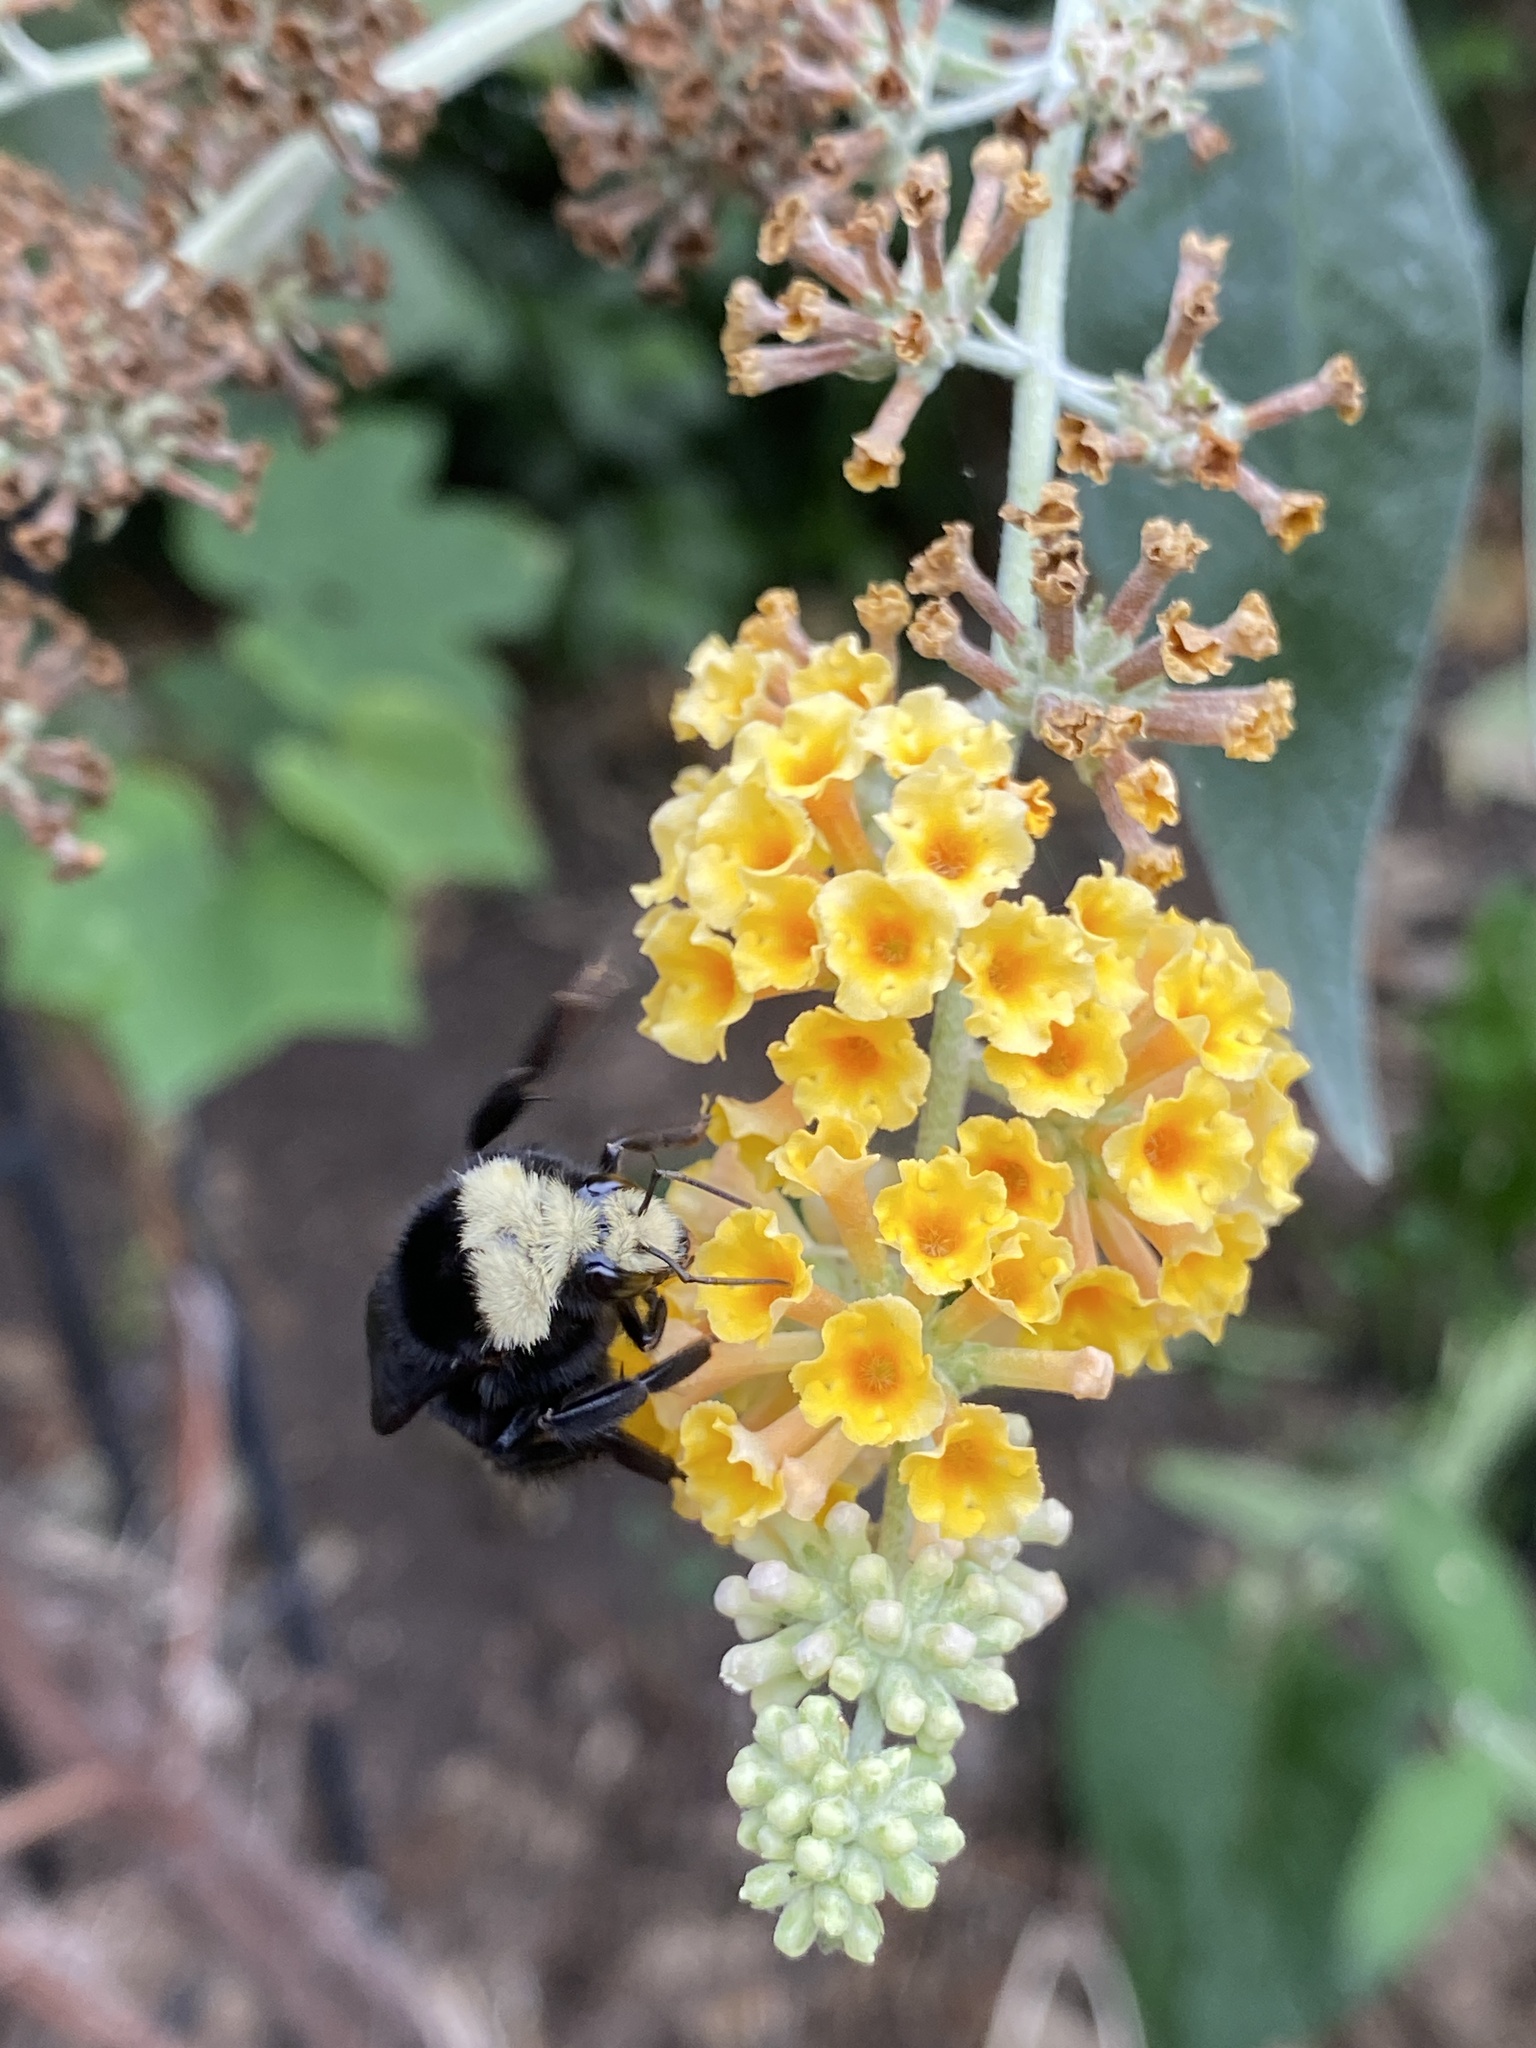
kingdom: Animalia
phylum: Arthropoda
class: Insecta
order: Hymenoptera
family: Apidae
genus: Bombus
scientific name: Bombus vosnesenskii
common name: Vosnesensky bumble bee
